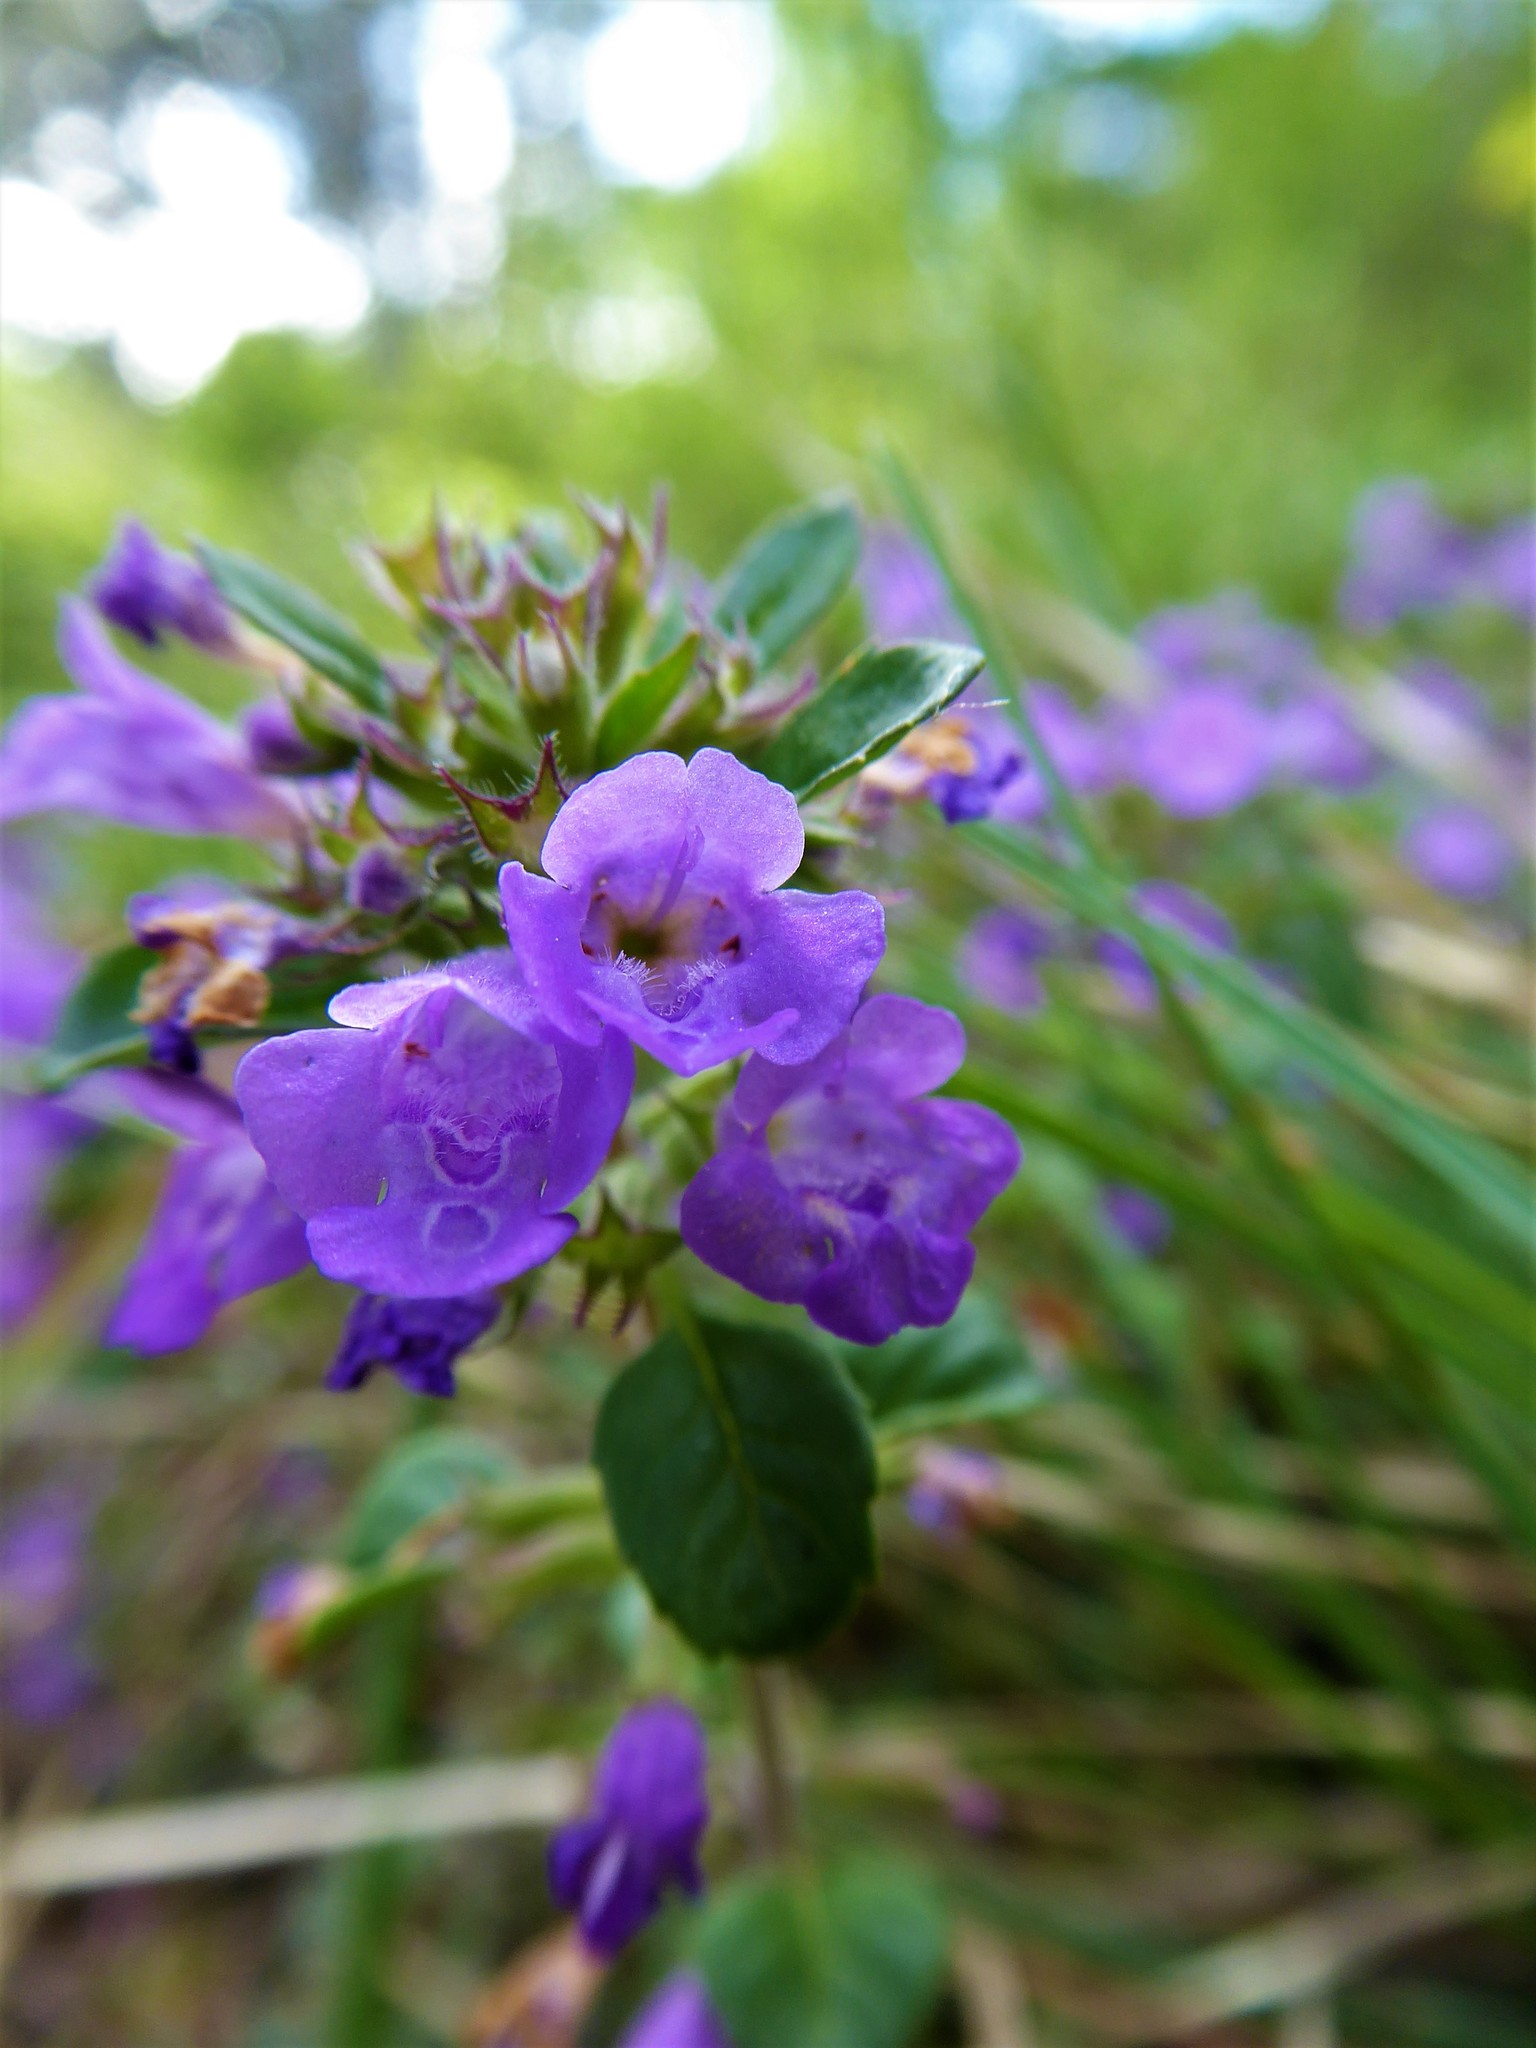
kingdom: Plantae
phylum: Tracheophyta
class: Magnoliopsida
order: Lamiales
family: Lamiaceae
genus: Clinopodium
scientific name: Clinopodium alpinum
